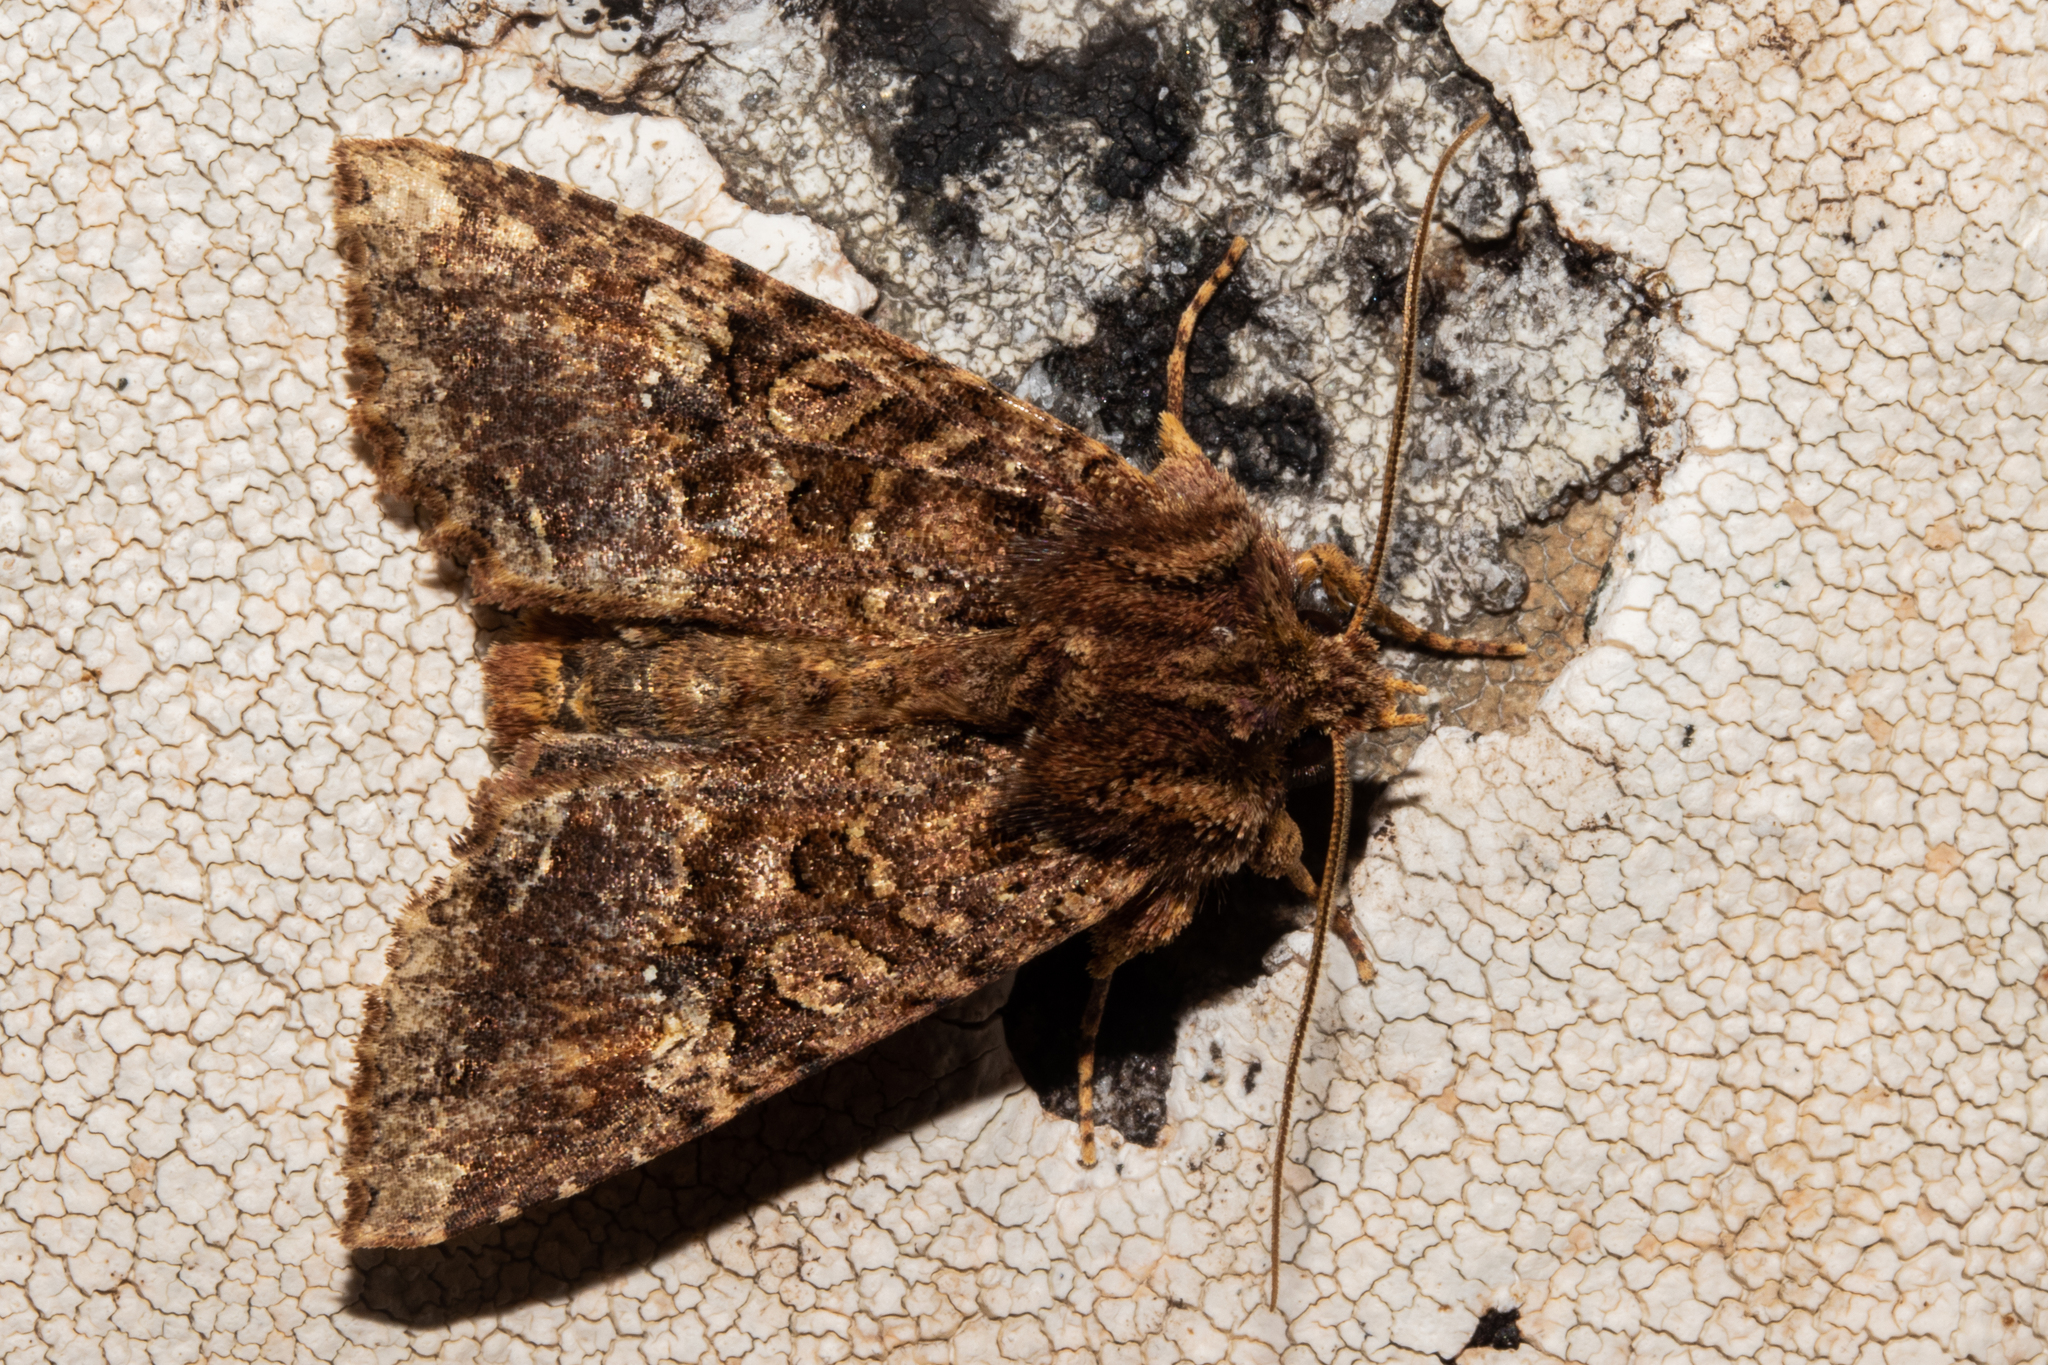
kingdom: Animalia
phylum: Arthropoda
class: Insecta
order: Lepidoptera
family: Noctuidae
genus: Meterana
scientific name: Meterana
